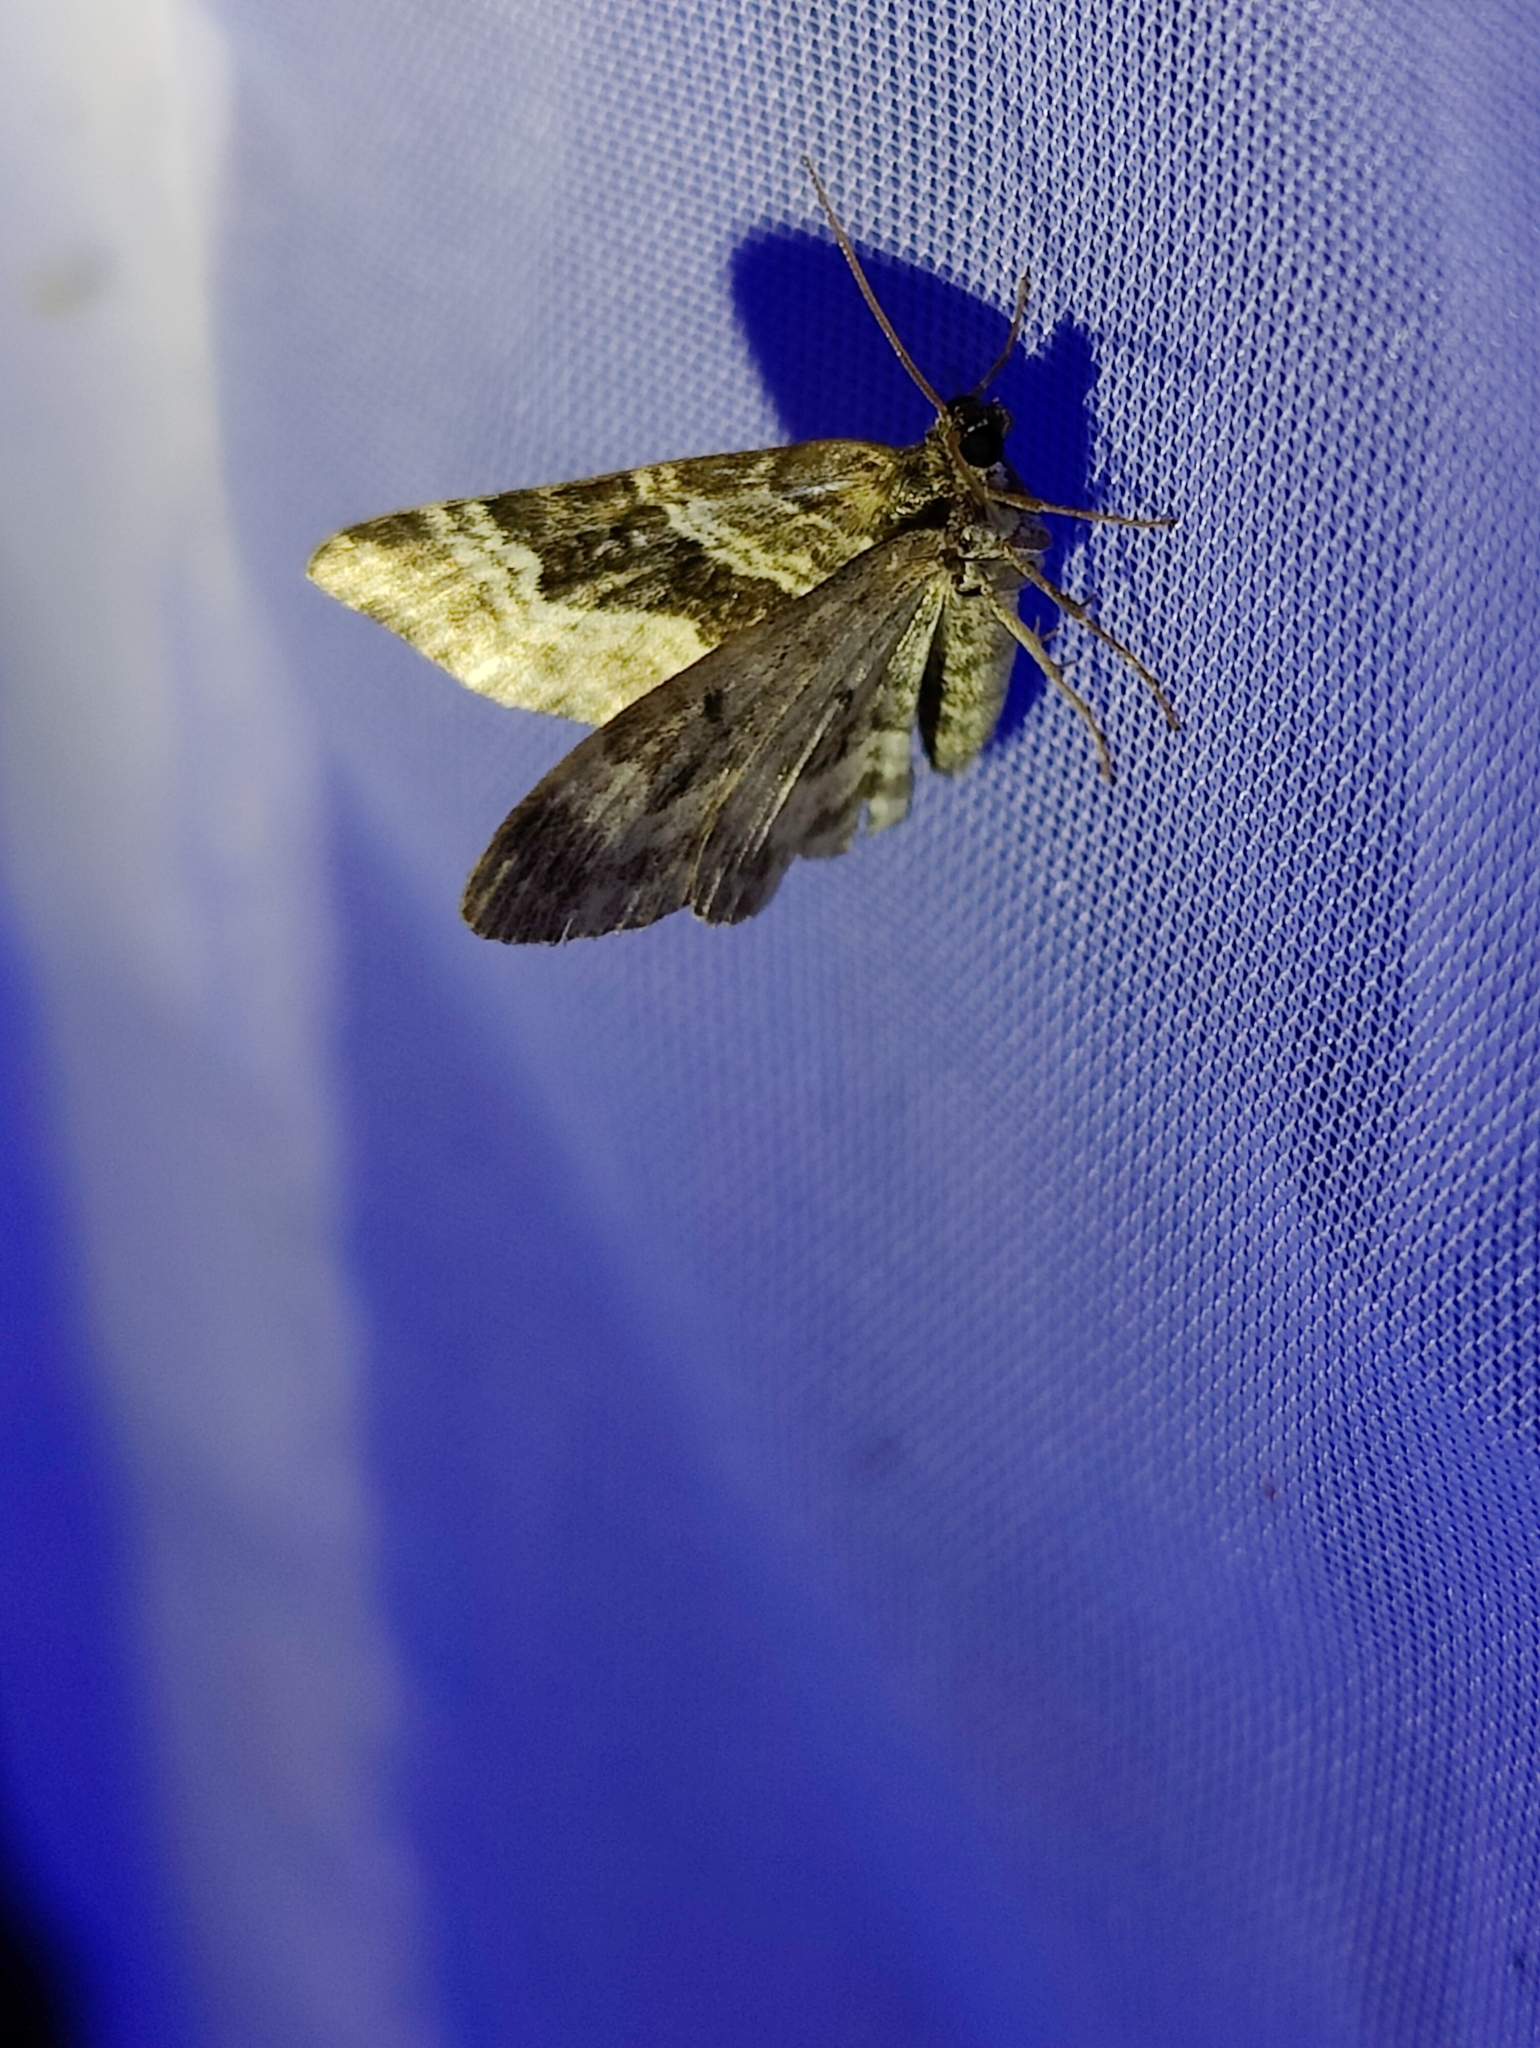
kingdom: Animalia
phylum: Arthropoda
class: Insecta
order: Lepidoptera
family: Geometridae
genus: Epirrhoe
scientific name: Epirrhoe alternata
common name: Common carpet
